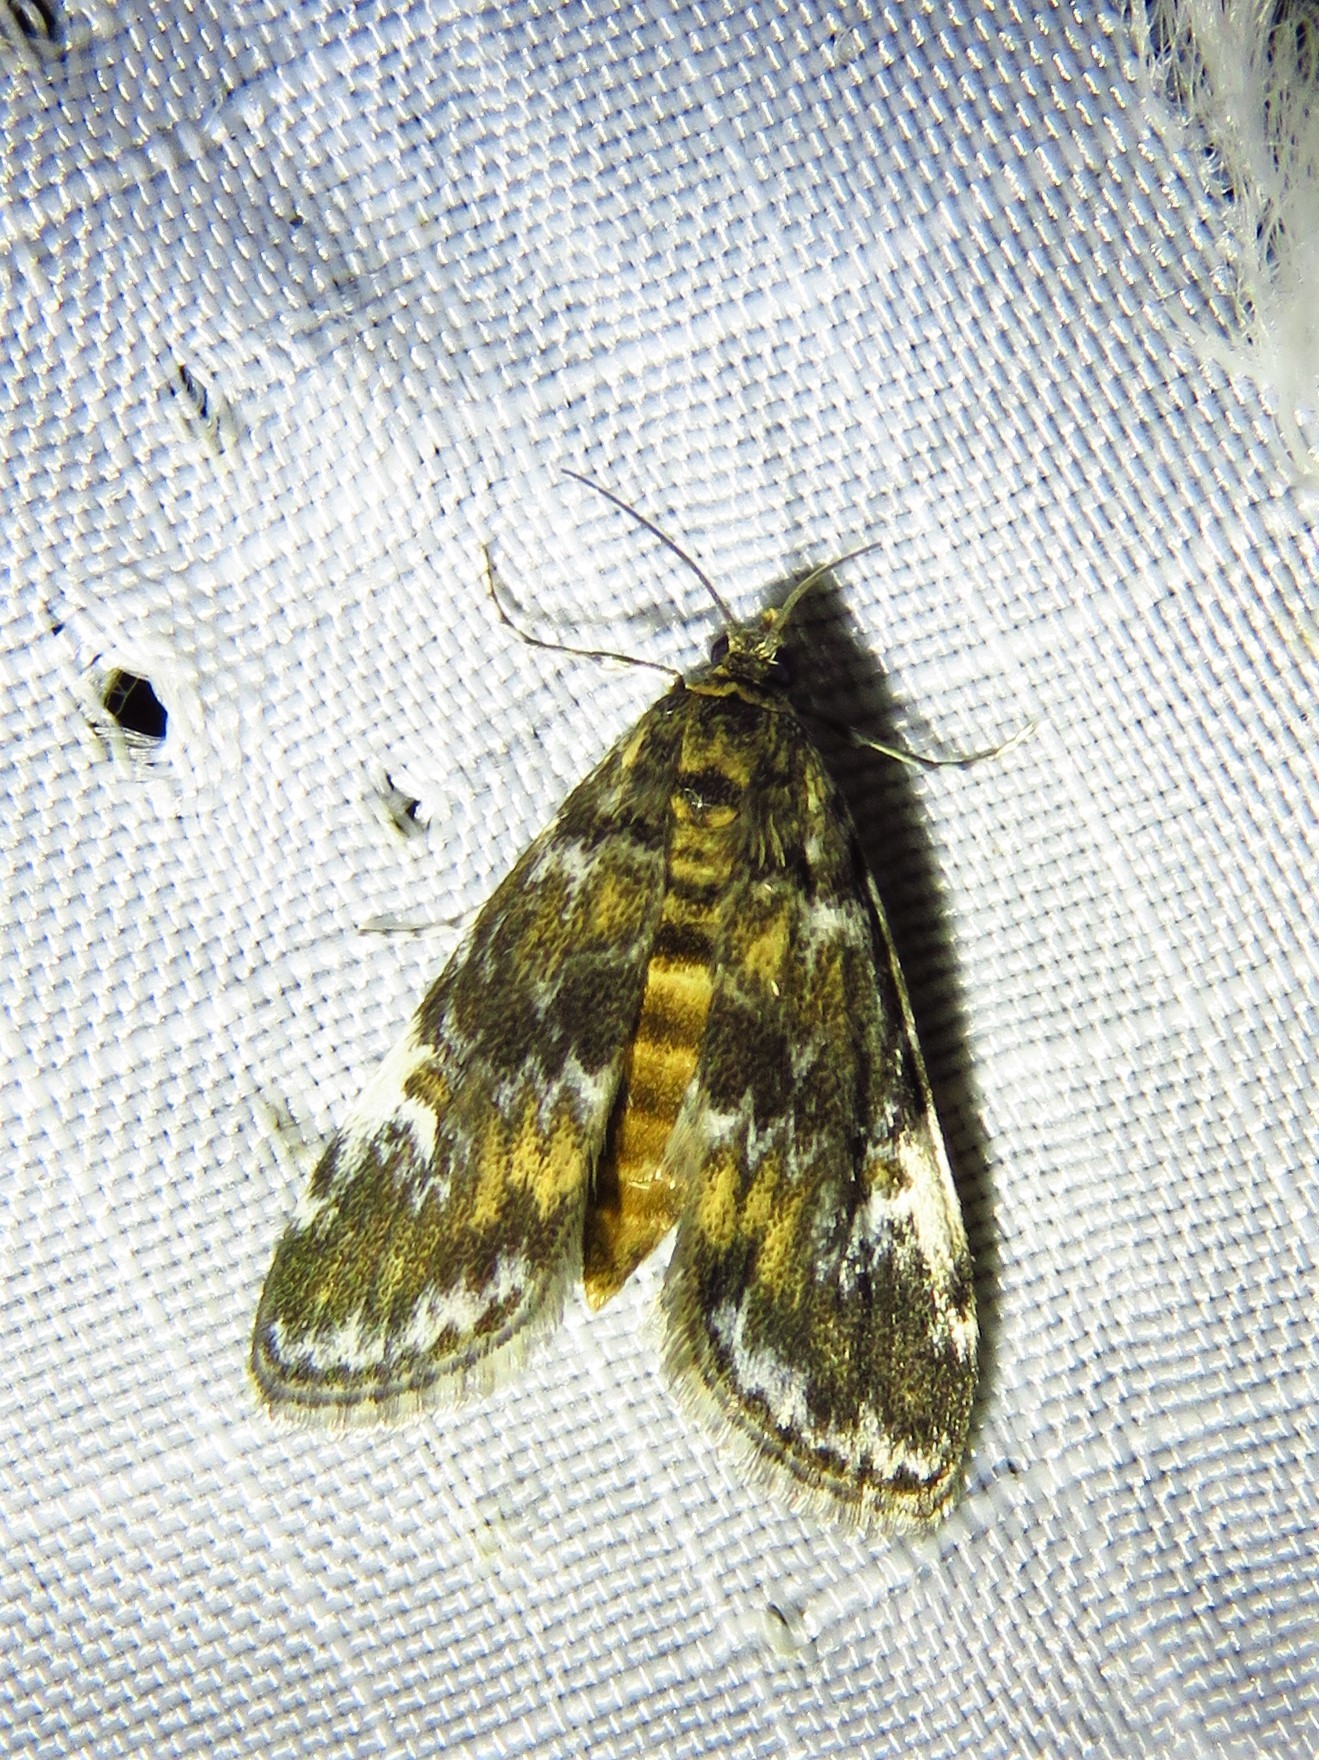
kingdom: Animalia
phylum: Arthropoda
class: Insecta
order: Lepidoptera
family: Crambidae
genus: Elophila
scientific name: Elophila obliteralis
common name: Waterlily leafcutter moth
